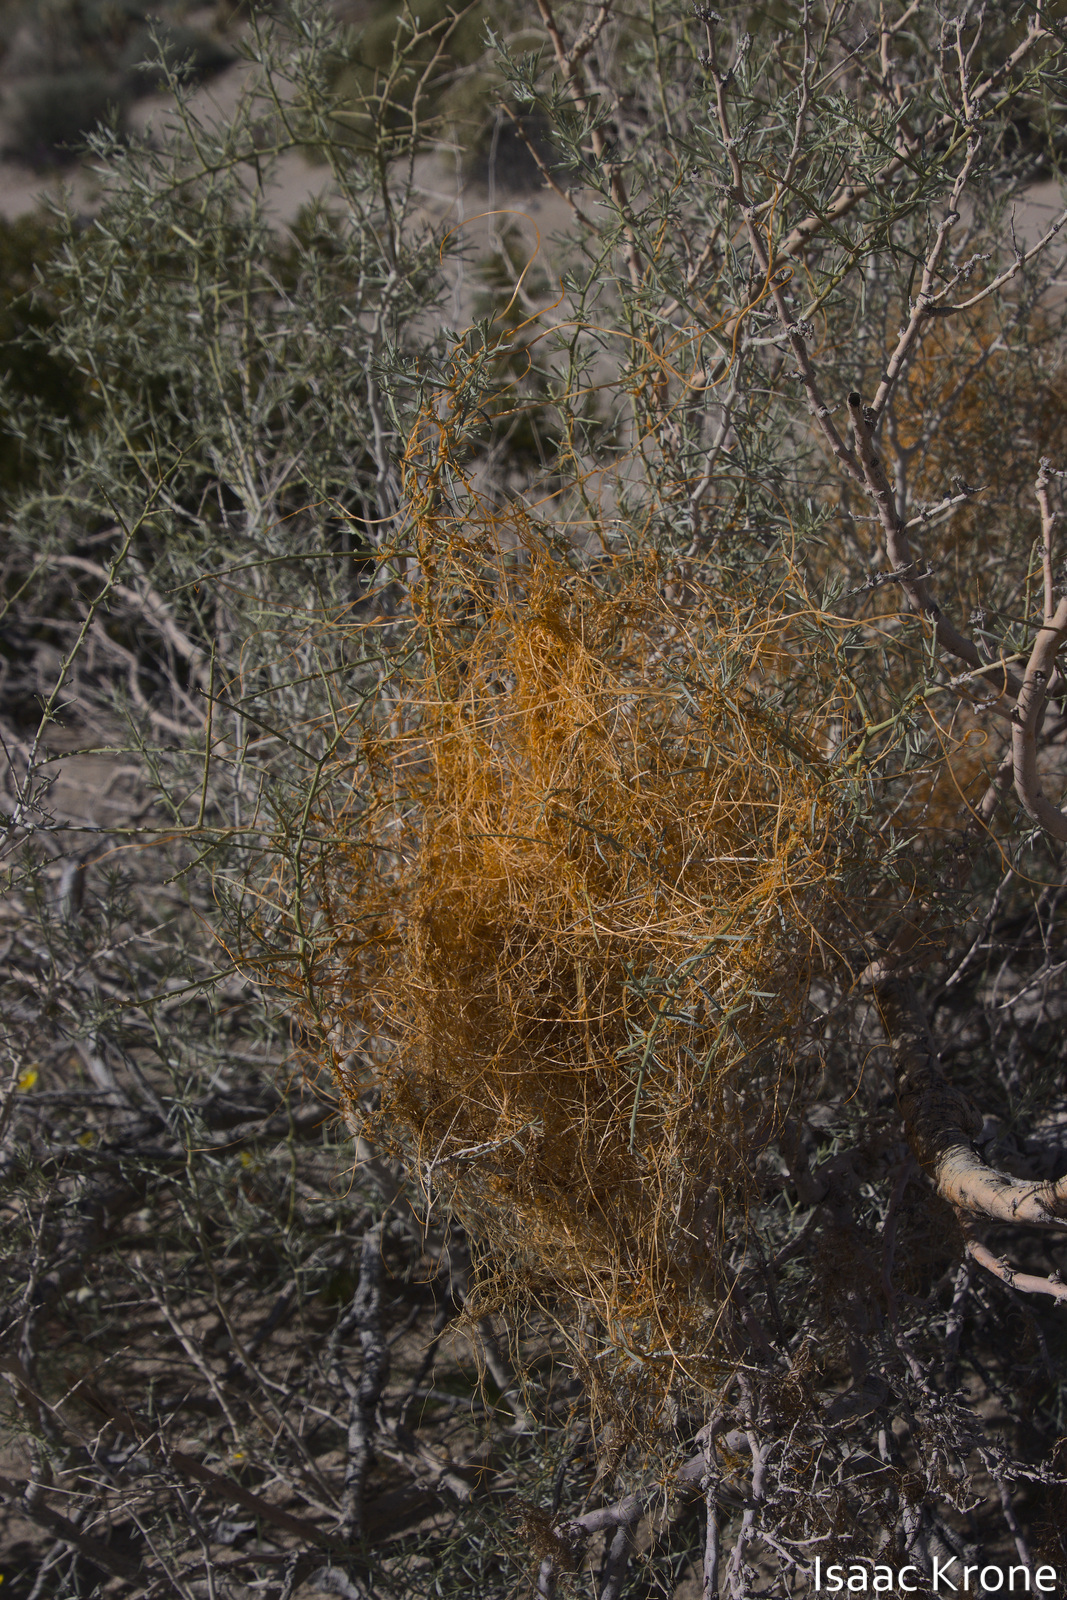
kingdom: Plantae
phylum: Tracheophyta
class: Magnoliopsida
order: Solanales
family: Convolvulaceae
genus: Cuscuta
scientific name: Cuscuta psorothamnensis
